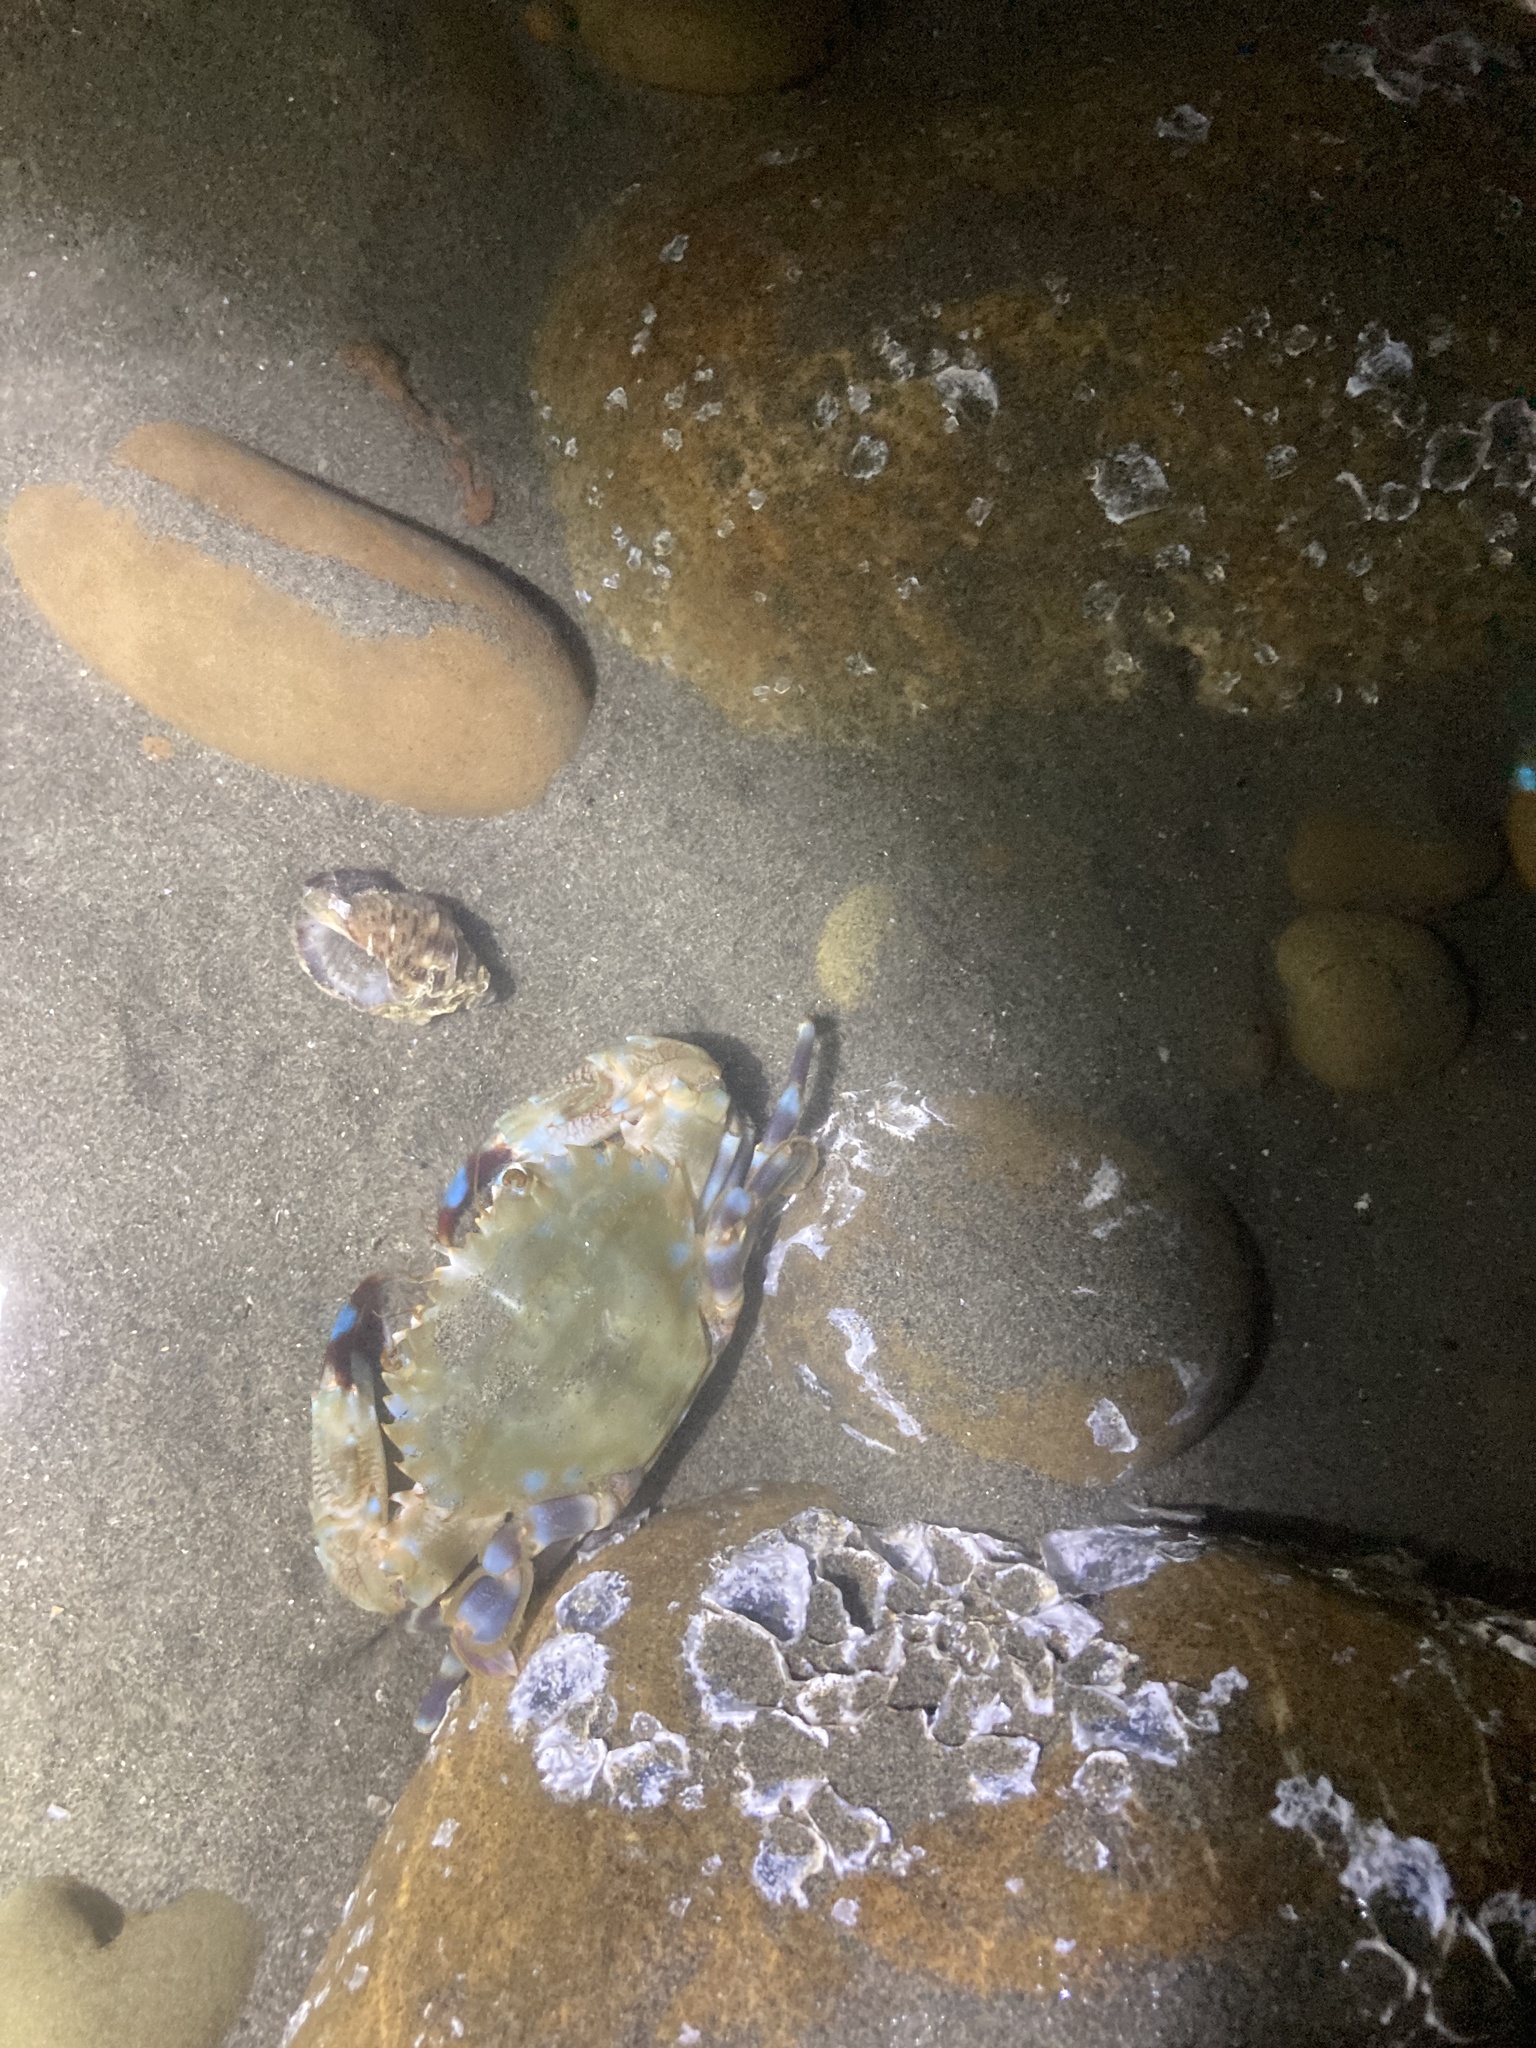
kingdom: Animalia
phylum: Arthropoda
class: Malacostraca
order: Decapoda
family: Portunidae
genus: Charybdis
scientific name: Charybdis annulata
